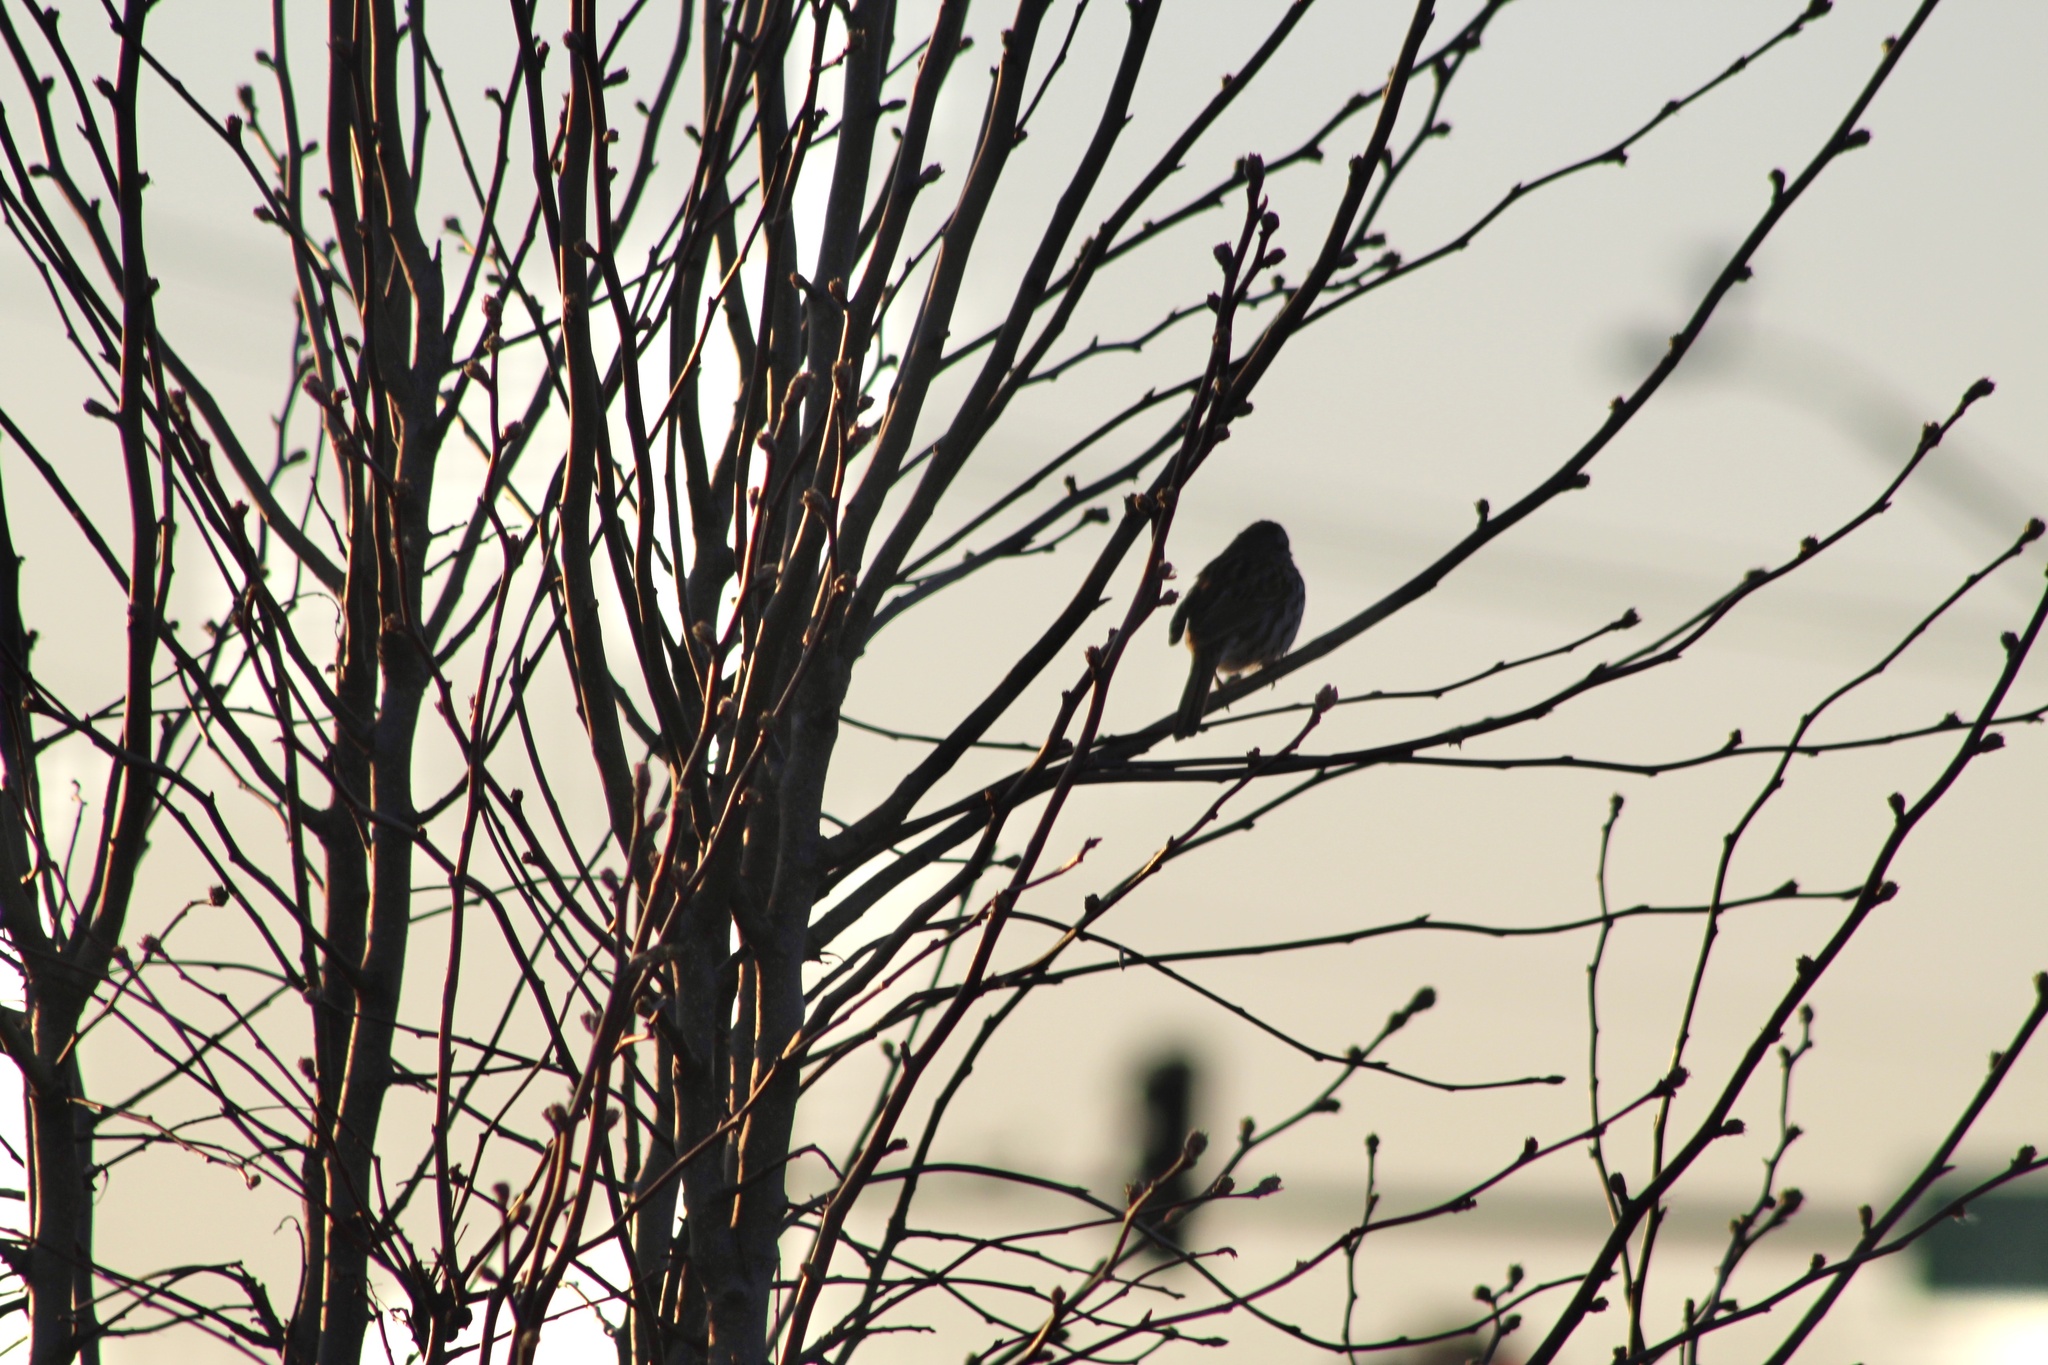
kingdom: Animalia
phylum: Chordata
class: Aves
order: Passeriformes
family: Passerellidae
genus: Melospiza
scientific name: Melospiza melodia
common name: Song sparrow
